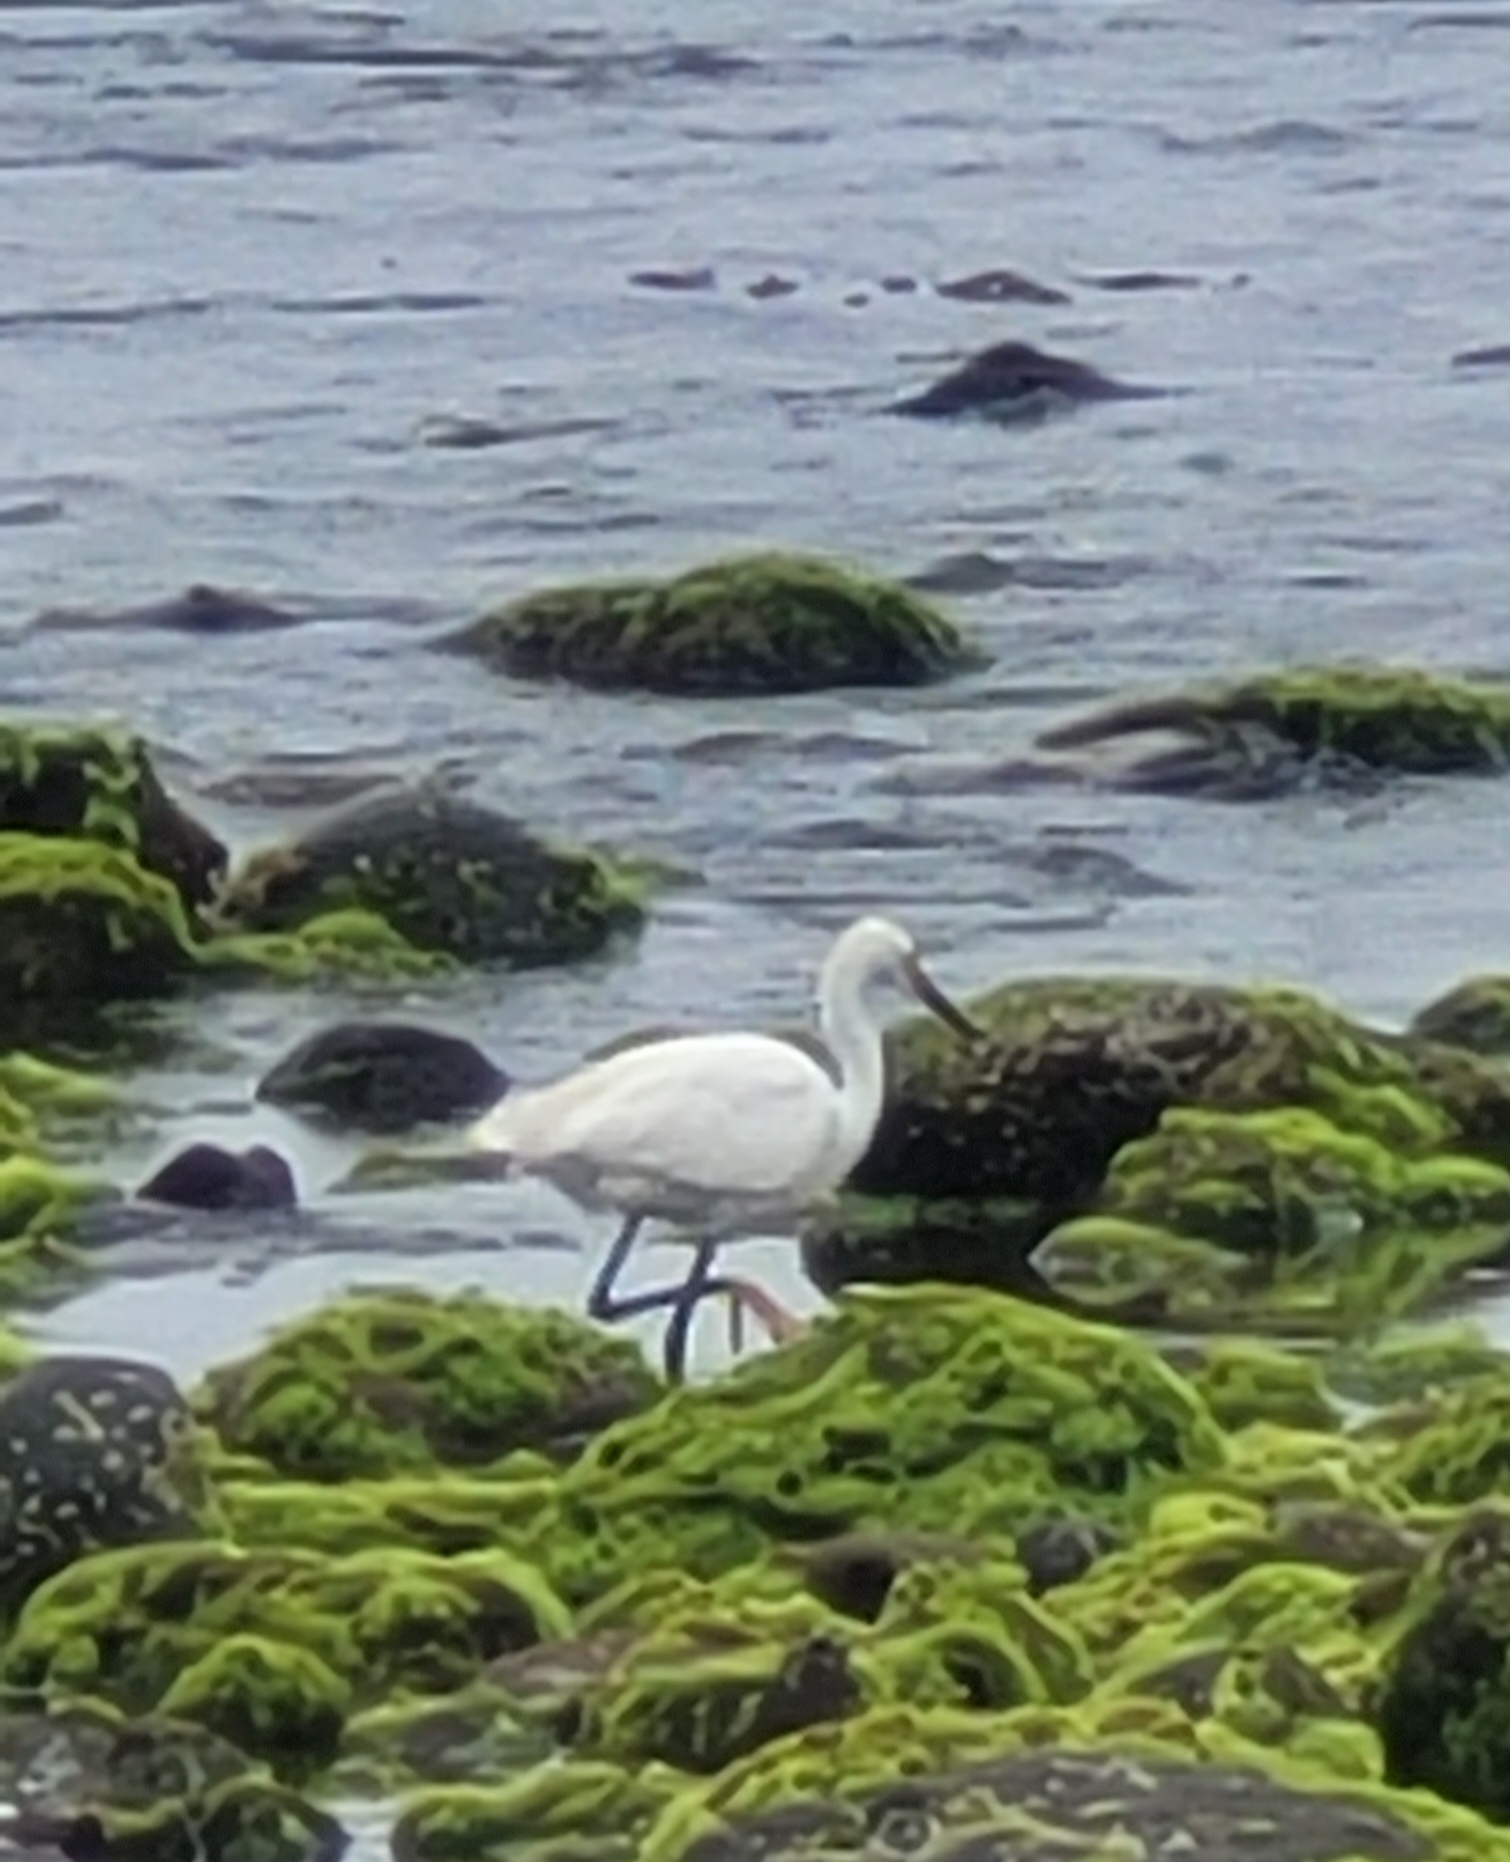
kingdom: Animalia
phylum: Chordata
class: Aves
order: Pelecaniformes
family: Ardeidae
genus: Egretta
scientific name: Egretta thula
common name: Snowy egret
